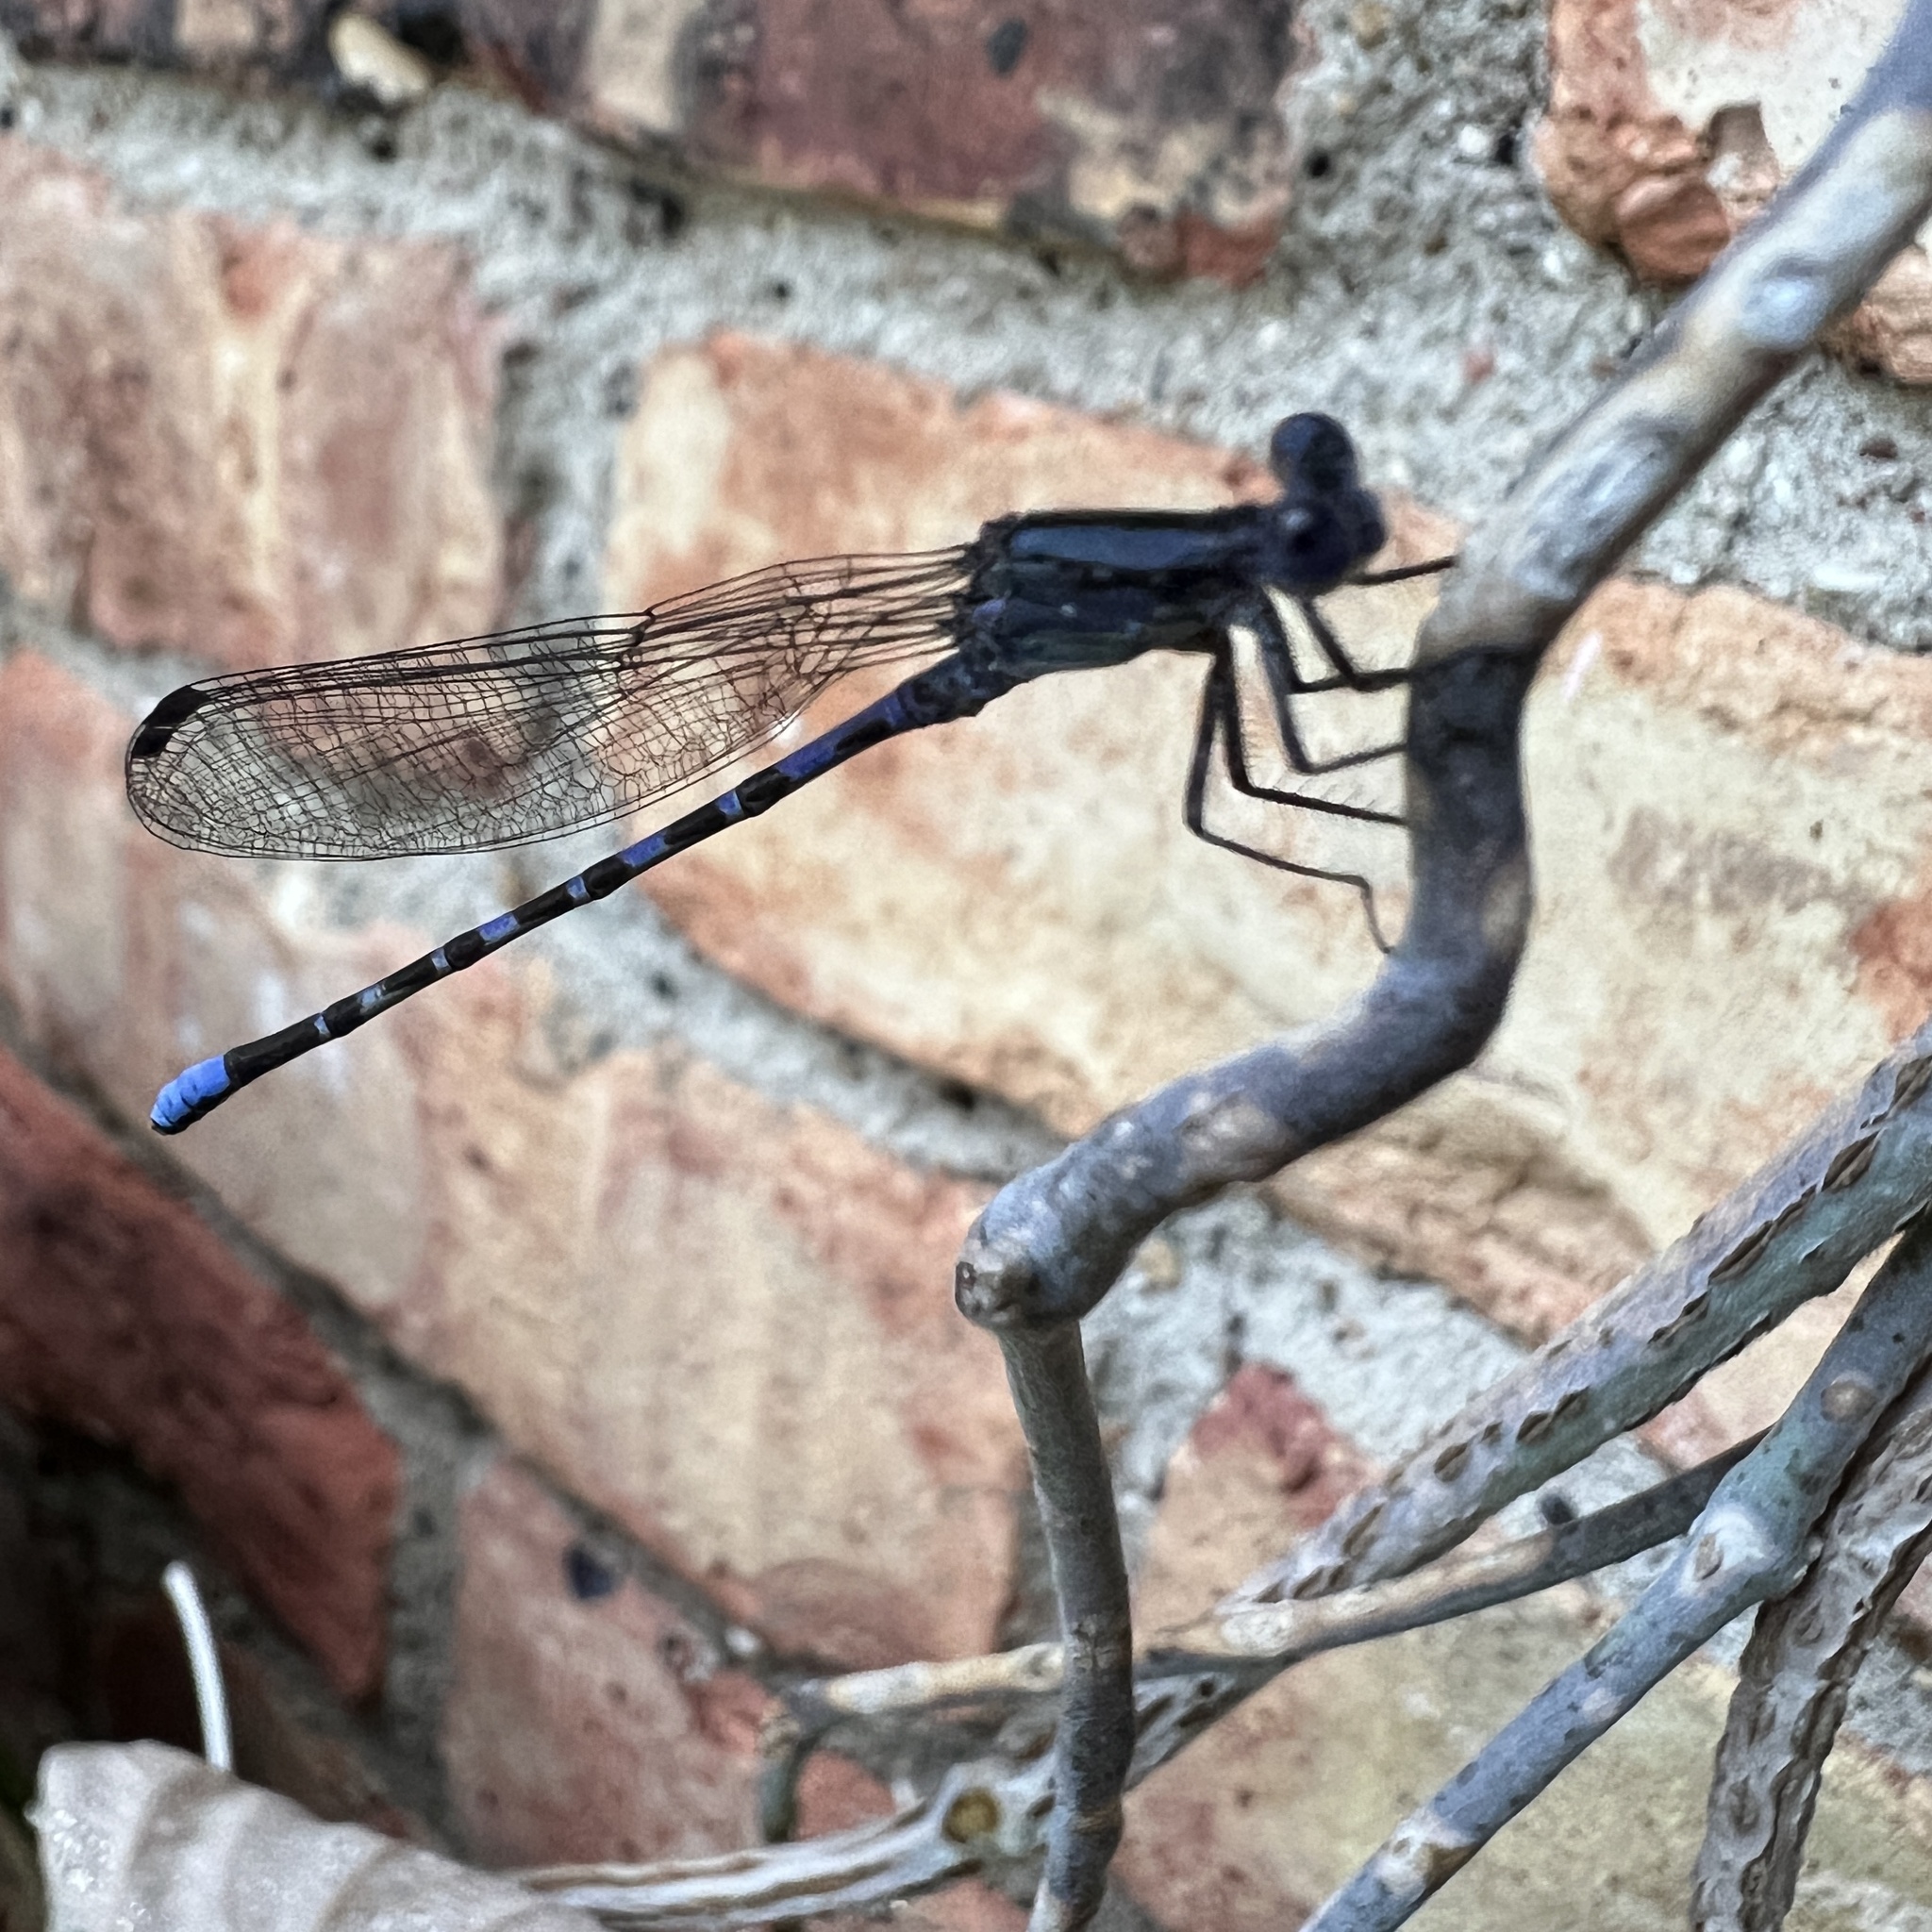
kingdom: Animalia
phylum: Arthropoda
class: Insecta
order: Odonata
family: Coenagrionidae
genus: Argia
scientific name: Argia immunda
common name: Kiowa dancer
